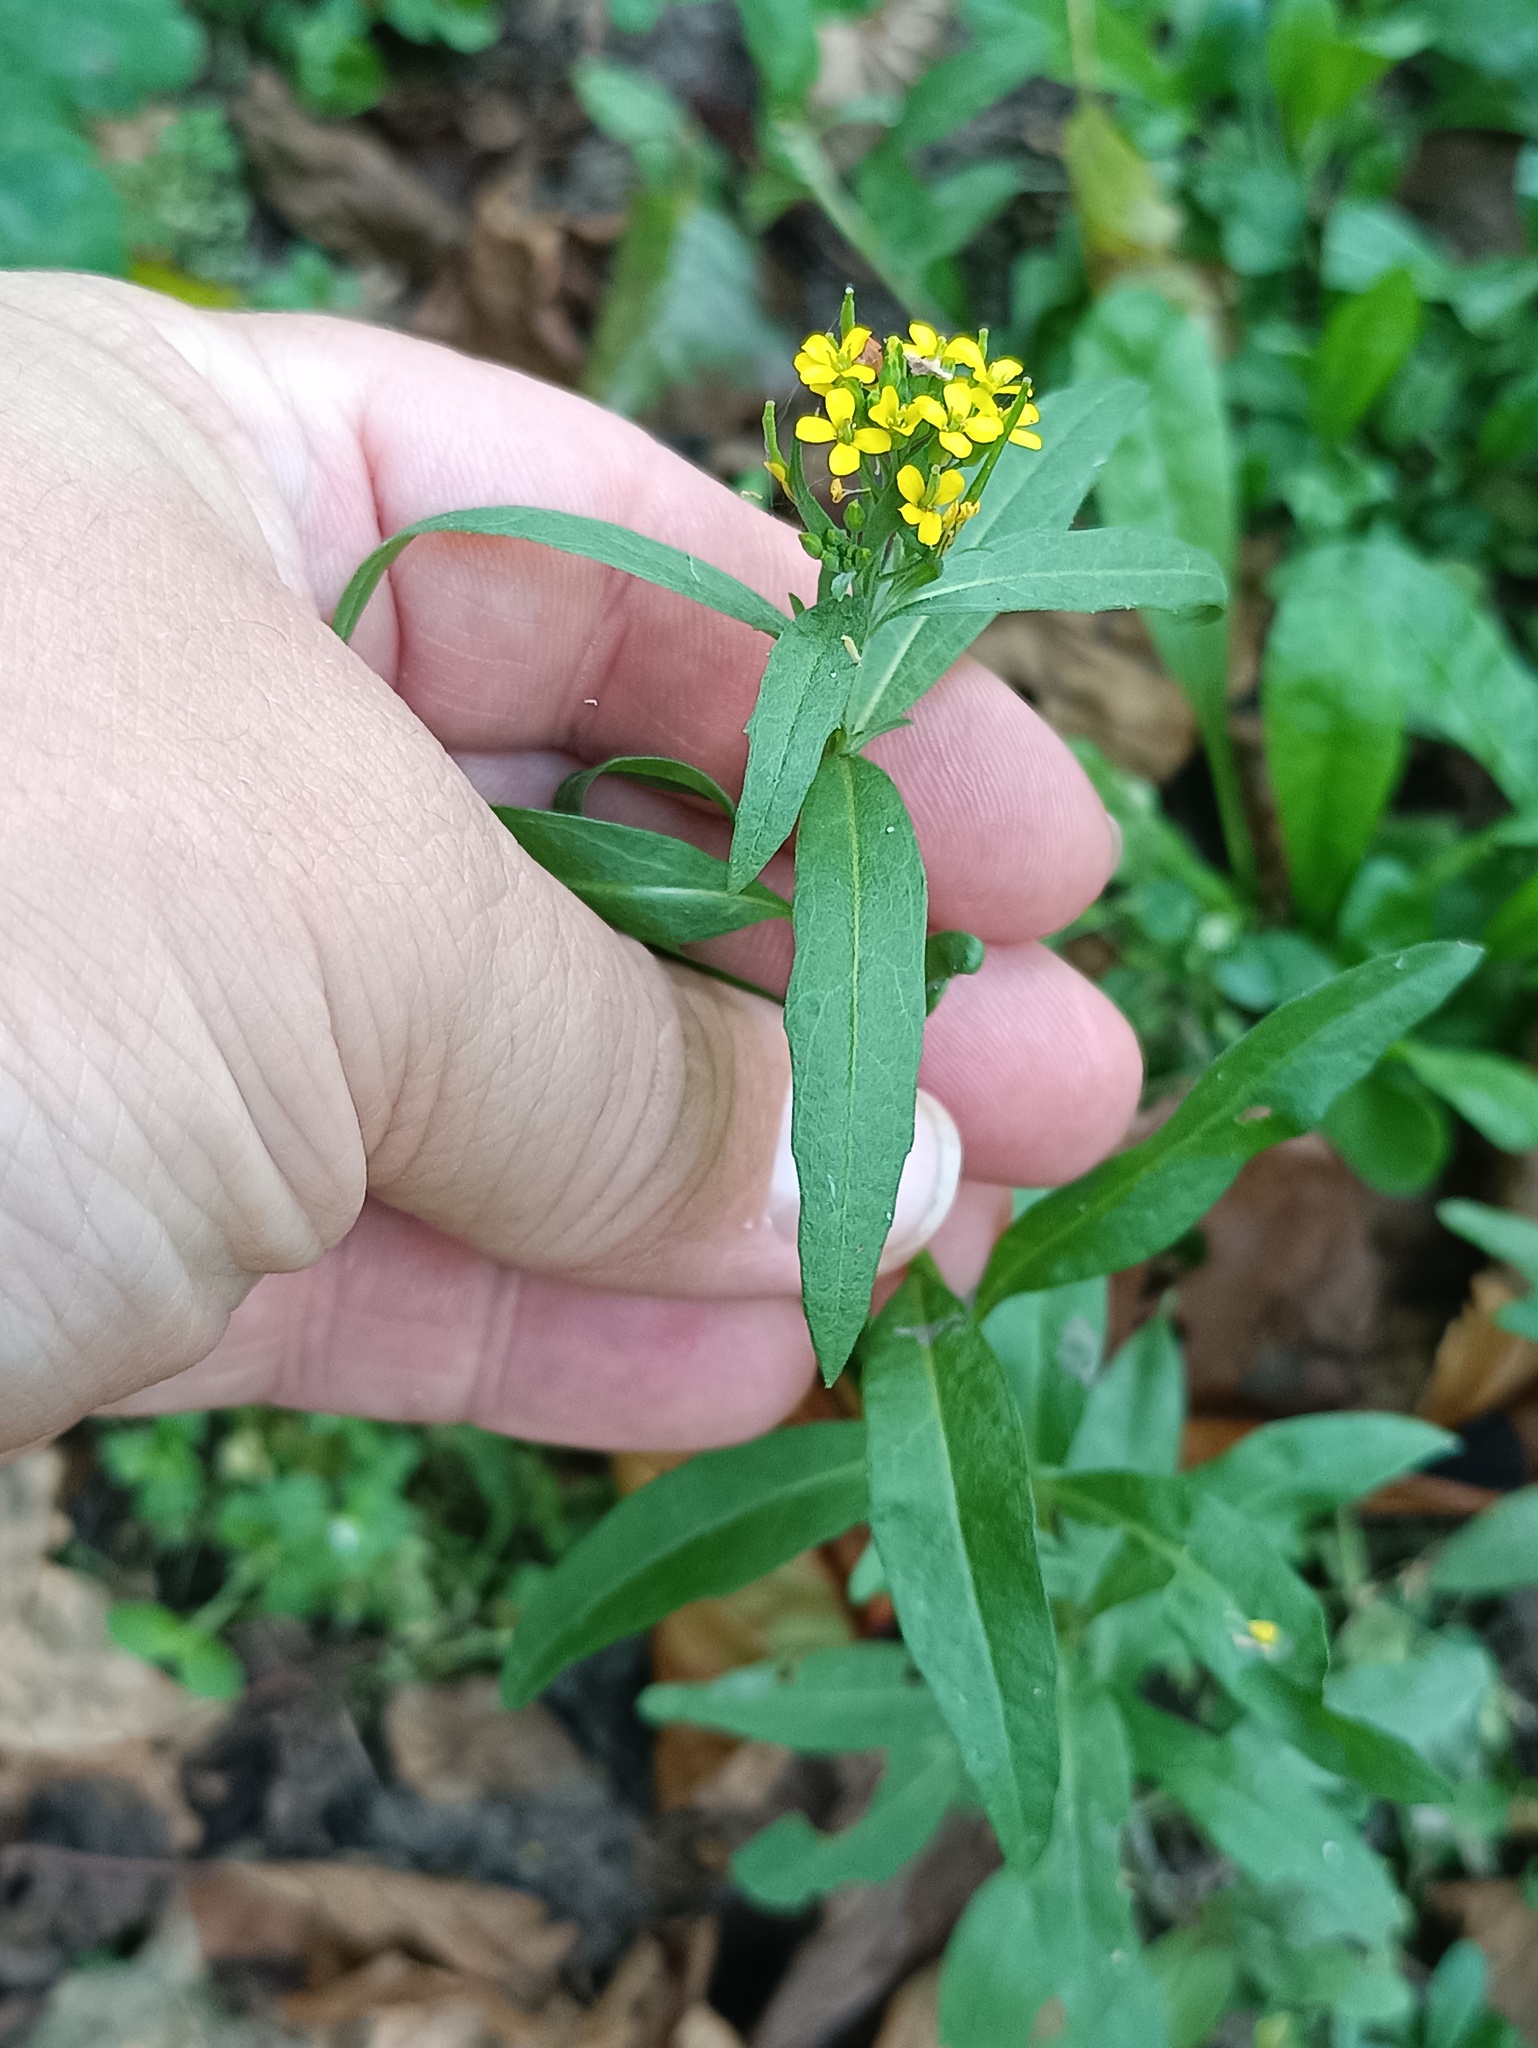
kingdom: Plantae
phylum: Tracheophyta
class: Magnoliopsida
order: Brassicales
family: Brassicaceae
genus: Erysimum
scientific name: Erysimum cheiranthoides
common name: Treacle mustard
